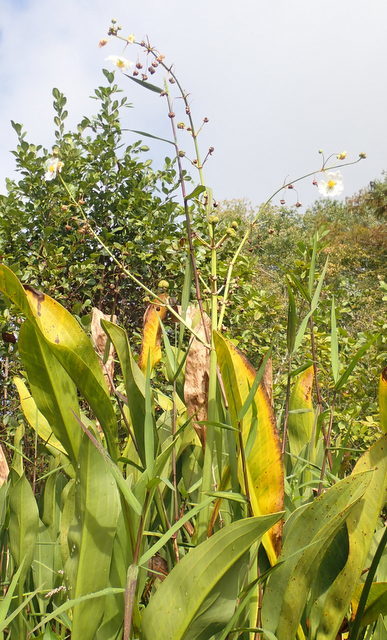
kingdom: Plantae
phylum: Tracheophyta
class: Liliopsida
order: Alismatales
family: Alismataceae
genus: Sagittaria
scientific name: Sagittaria lancifolia
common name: Lance-leaf arrowhead
